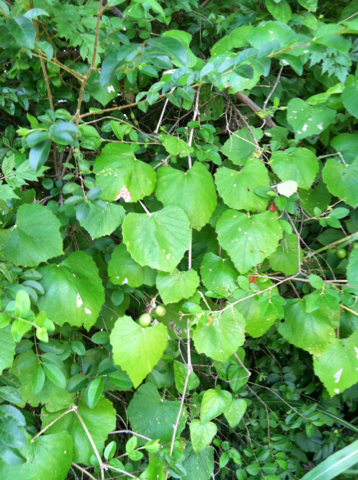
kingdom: Plantae
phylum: Tracheophyta
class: Magnoliopsida
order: Vitales
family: Vitaceae
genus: Vitis
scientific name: Vitis mustangensis
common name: Mustang grape
